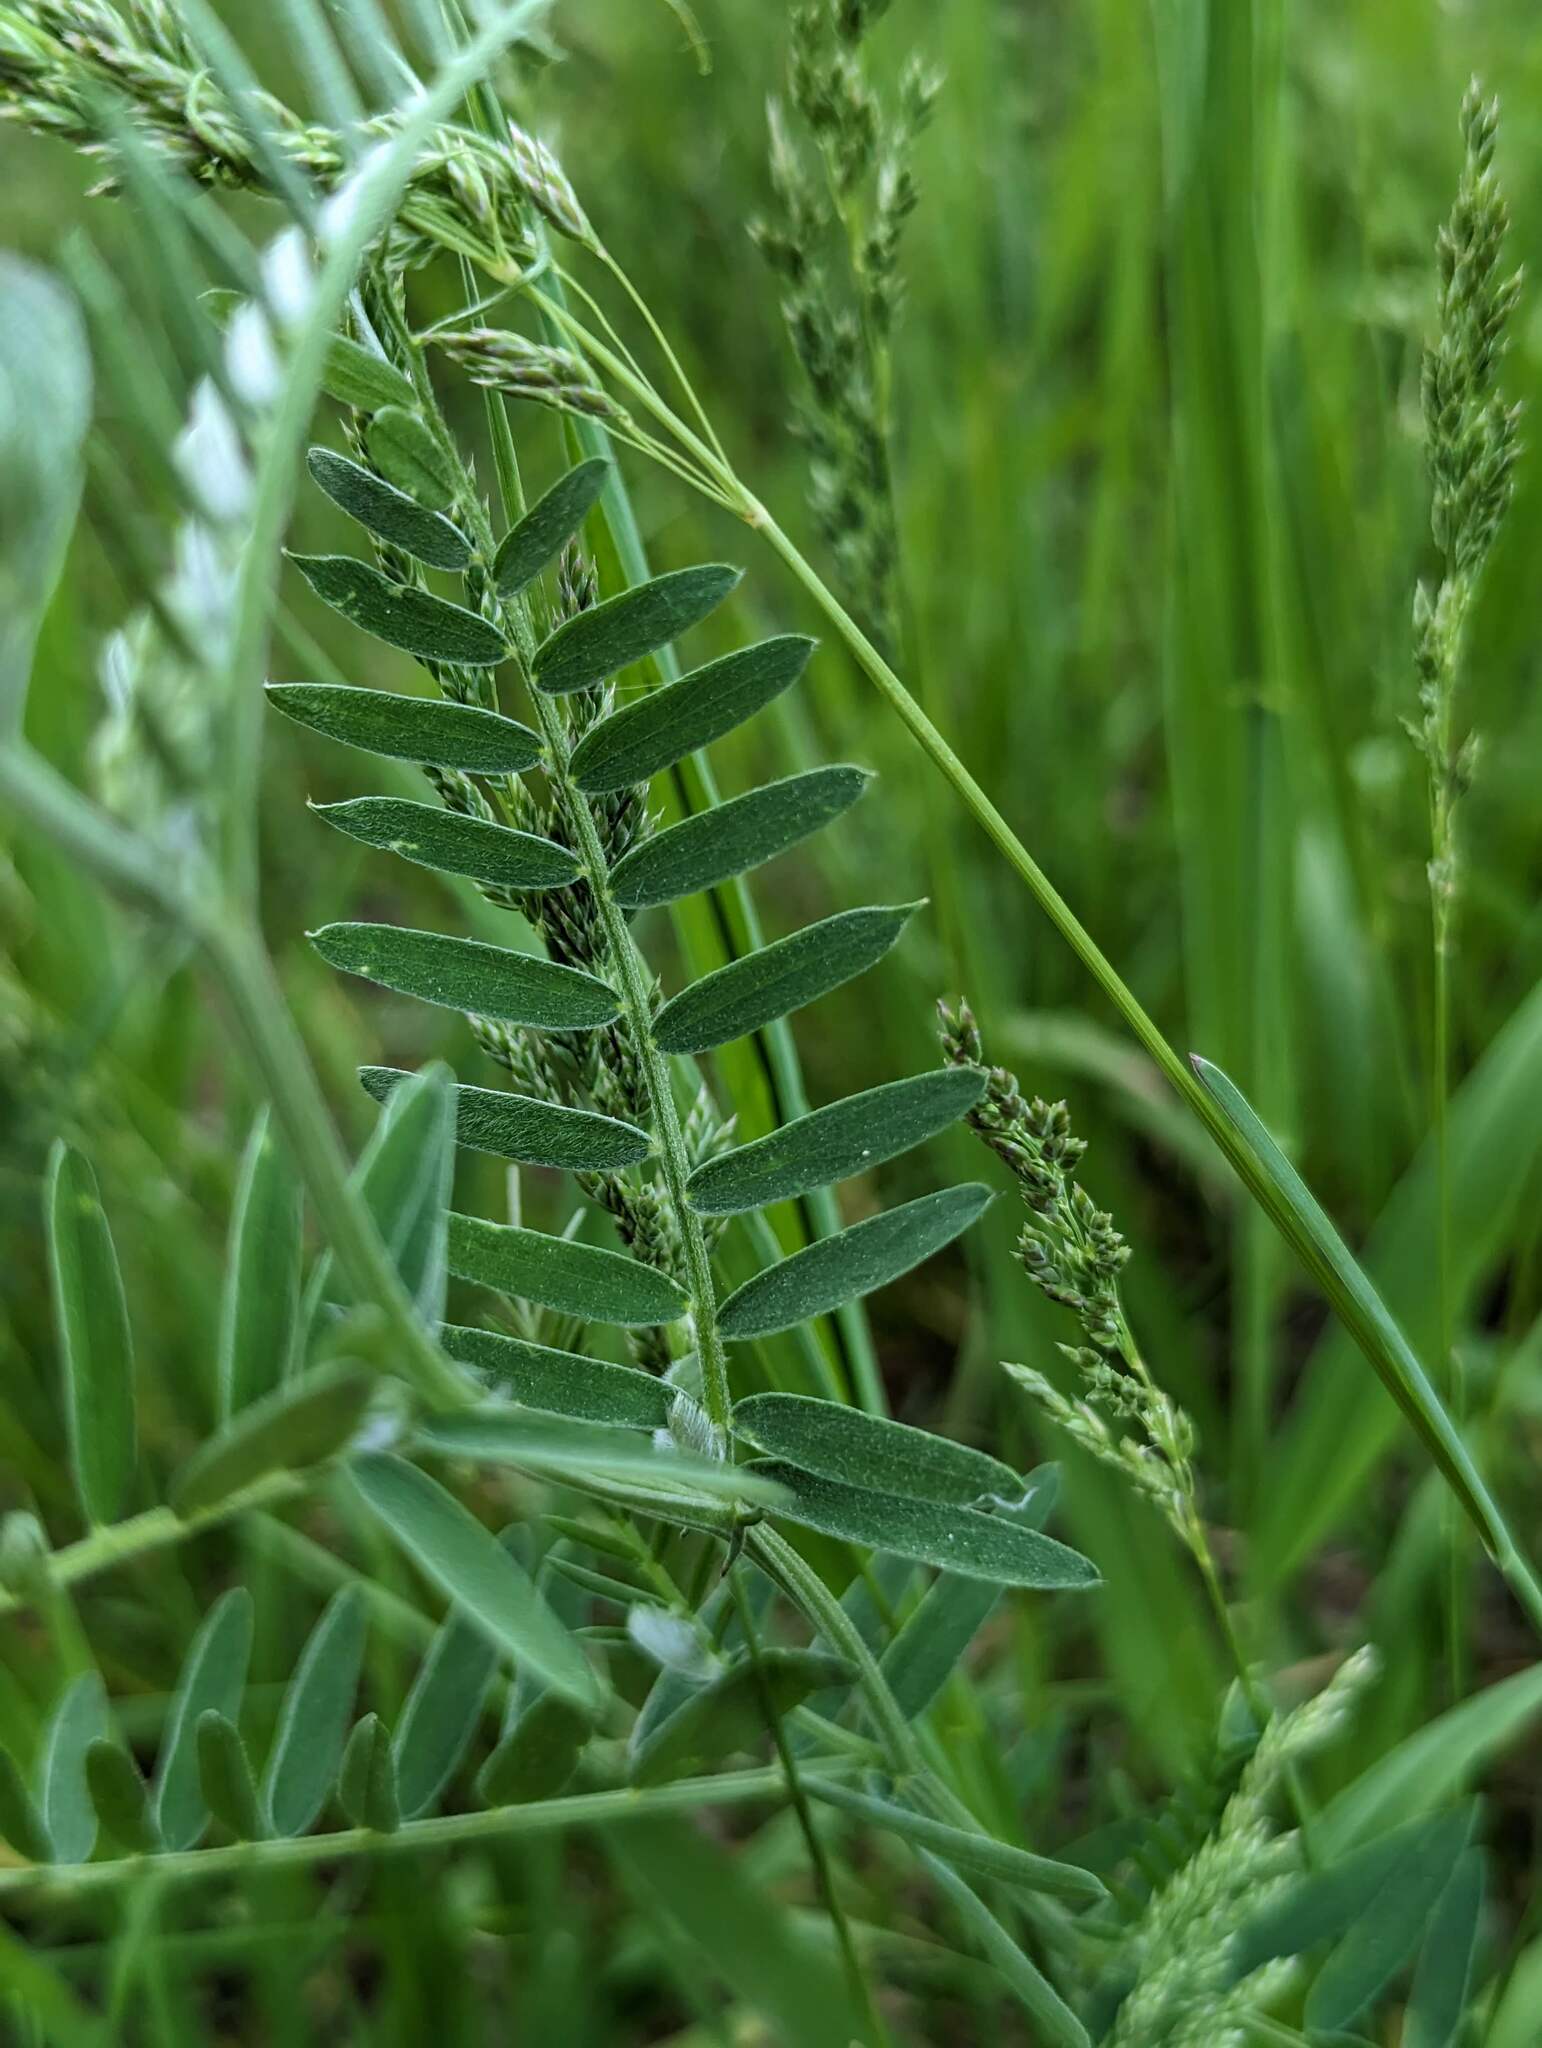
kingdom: Plantae
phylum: Tracheophyta
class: Magnoliopsida
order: Fabales
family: Fabaceae
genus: Vicia
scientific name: Vicia cracca
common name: Bird vetch
